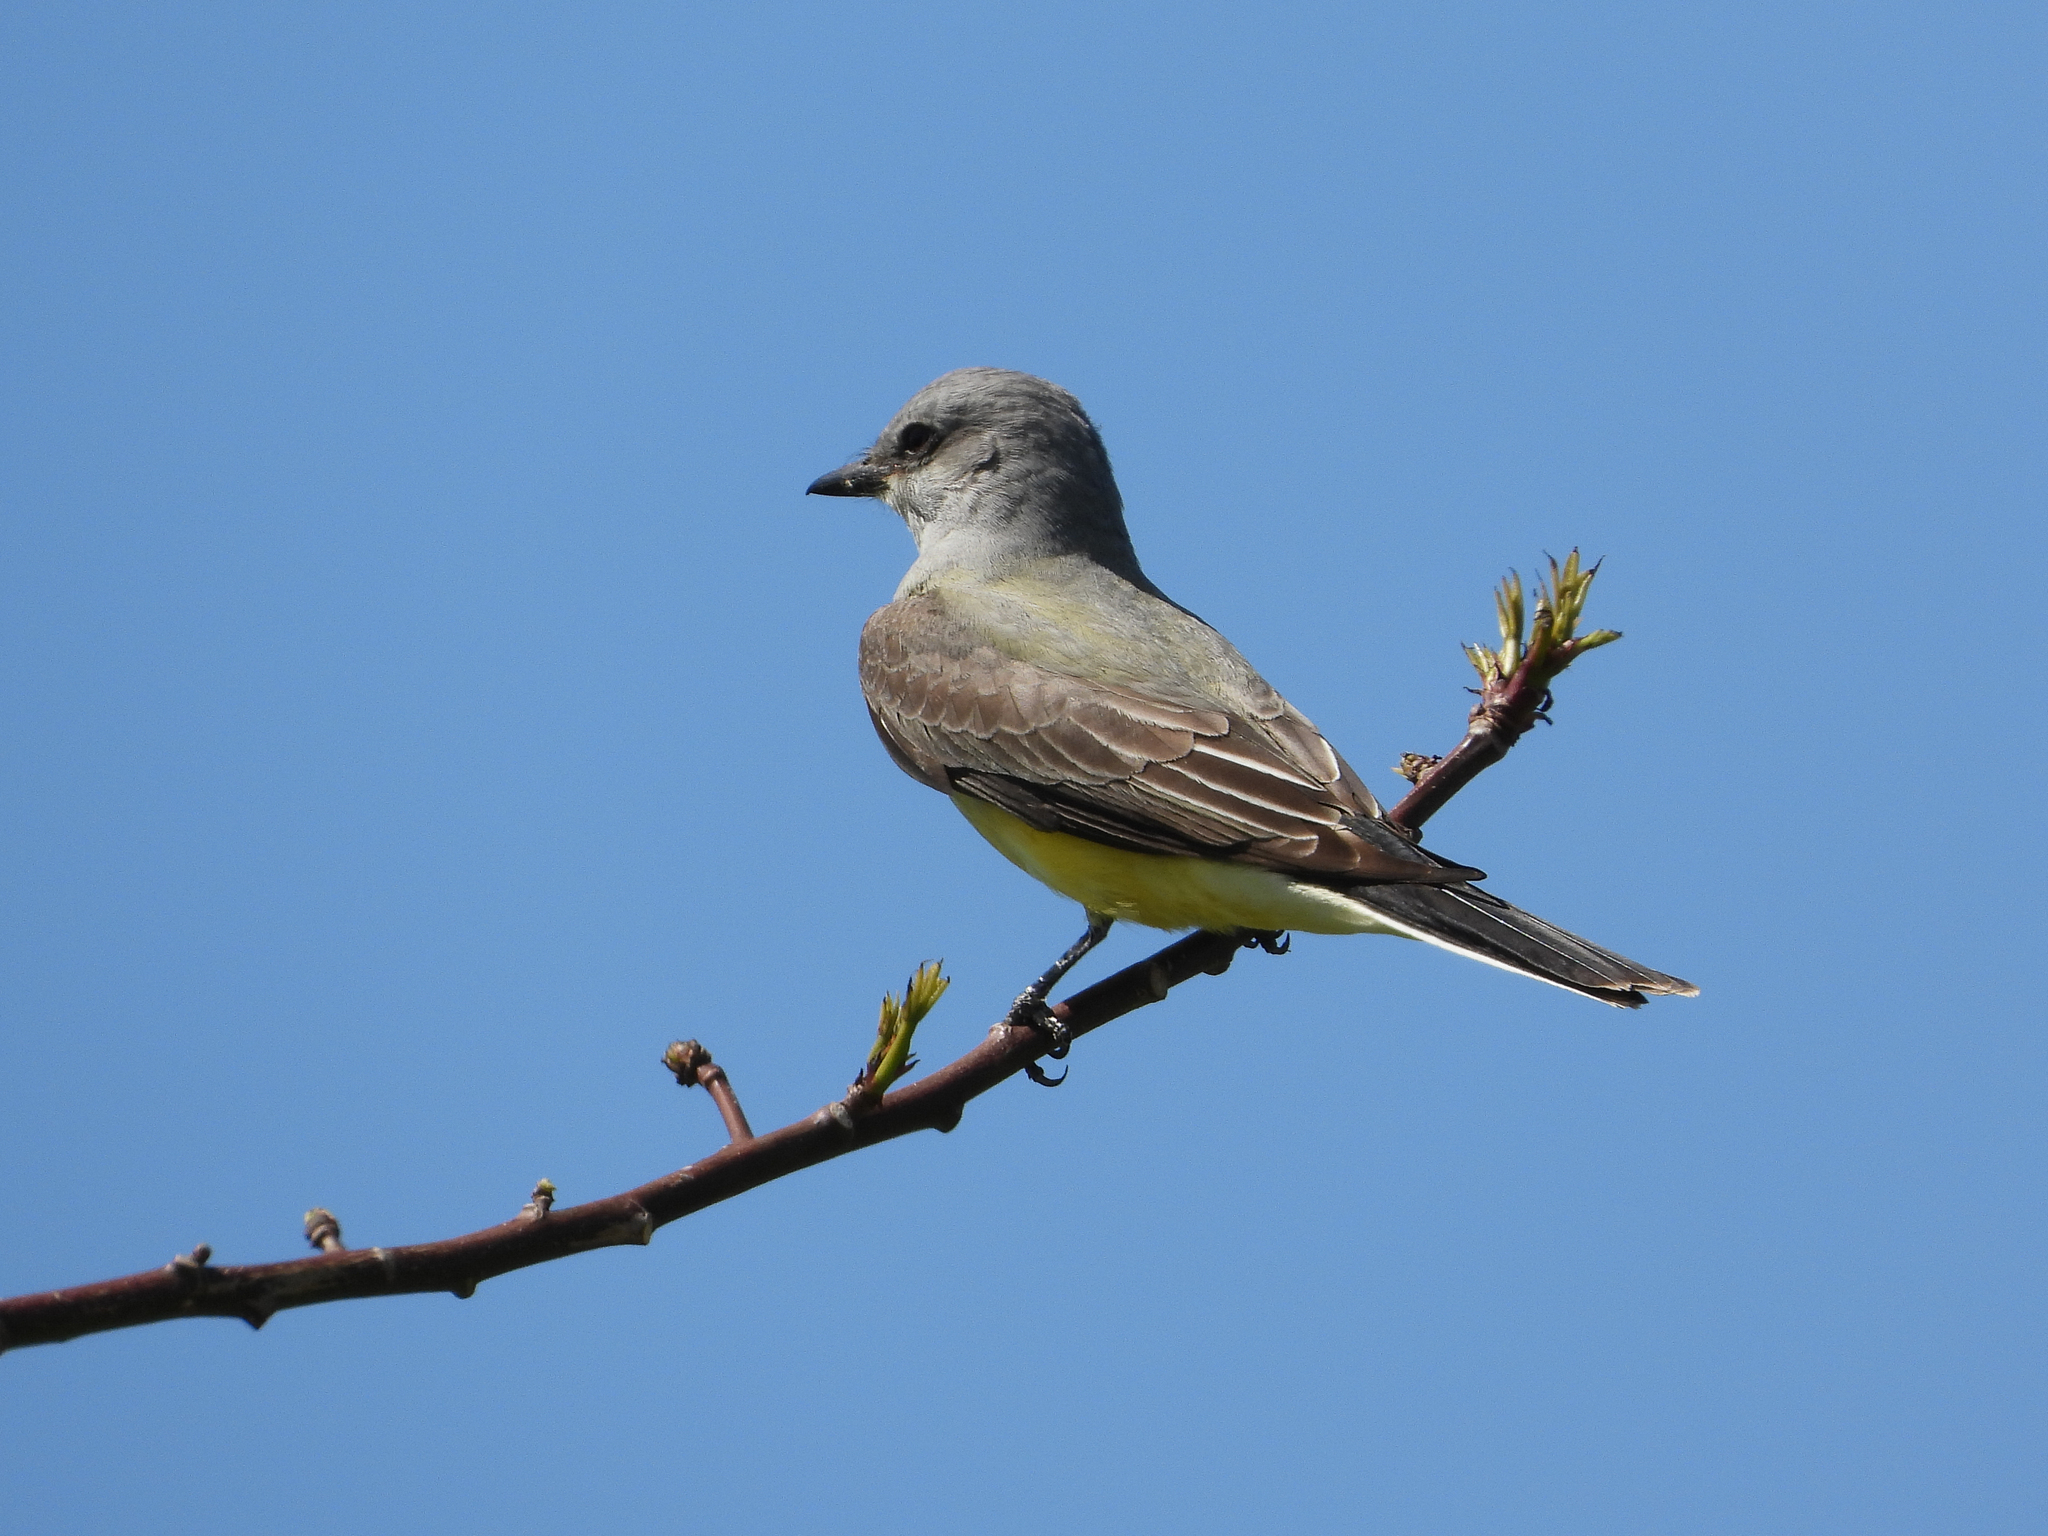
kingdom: Animalia
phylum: Chordata
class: Aves
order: Passeriformes
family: Tyrannidae
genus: Tyrannus
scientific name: Tyrannus verticalis
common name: Western kingbird
